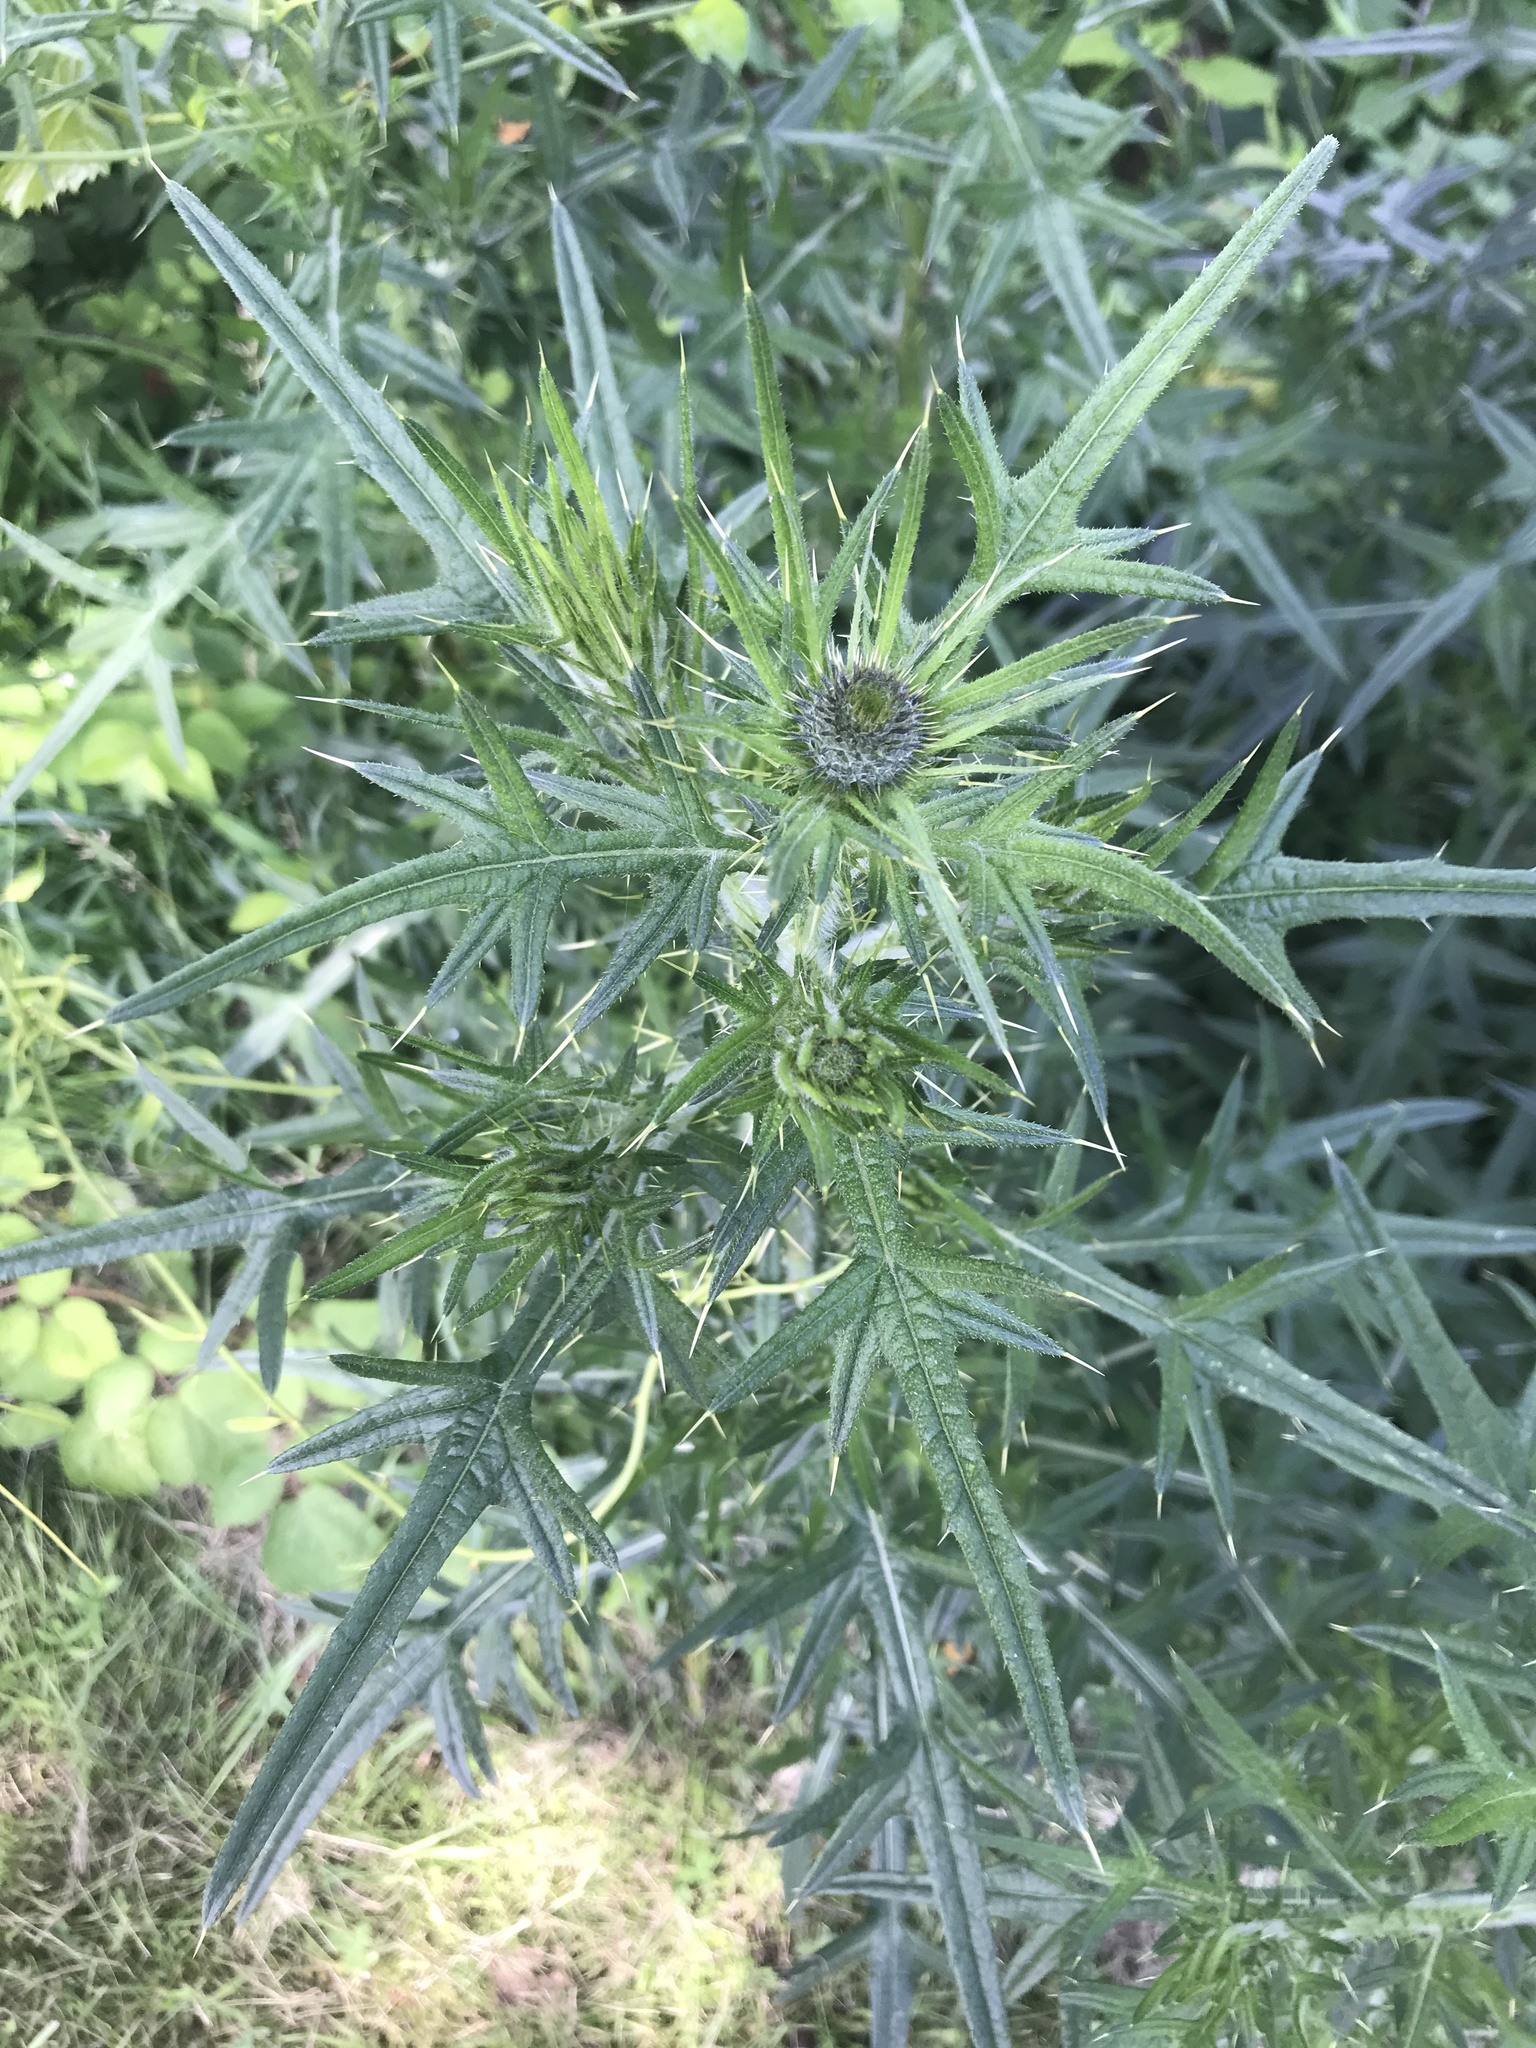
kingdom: Plantae
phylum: Tracheophyta
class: Magnoliopsida
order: Asterales
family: Asteraceae
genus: Cirsium
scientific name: Cirsium vulgare
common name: Bull thistle
